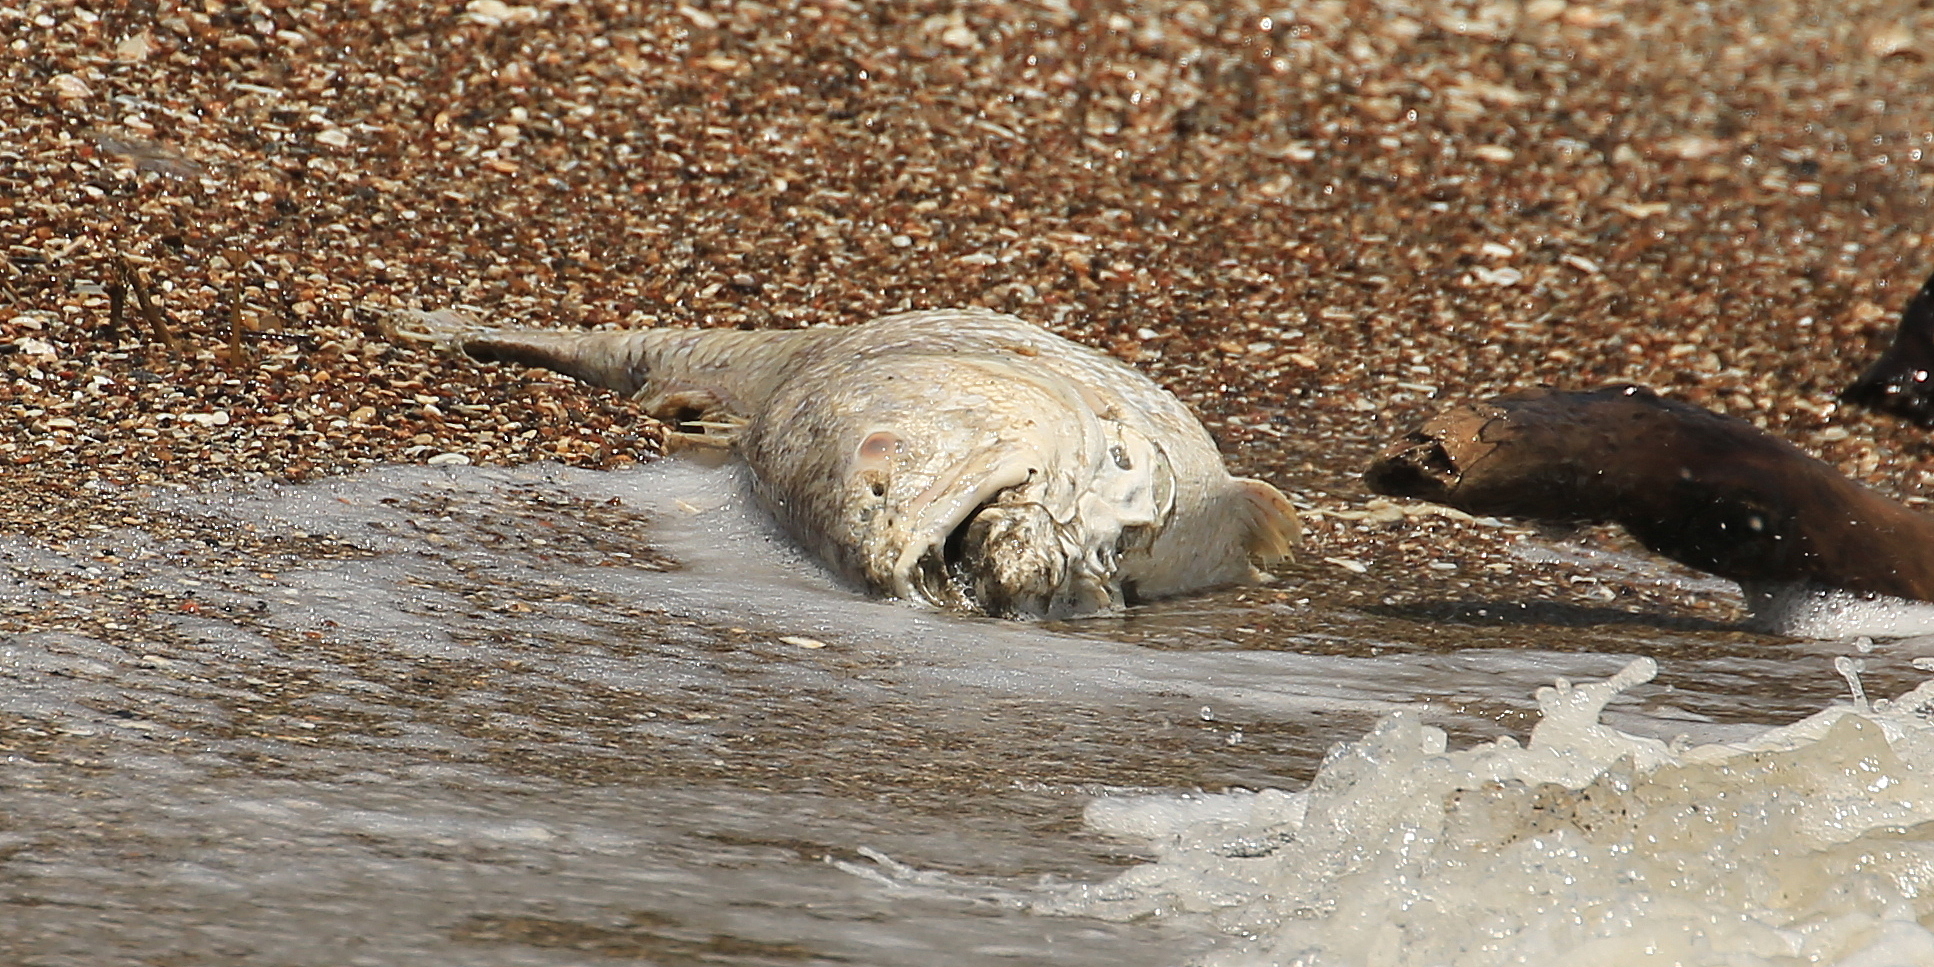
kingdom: Animalia
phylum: Chordata
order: Perciformes
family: Sciaenidae
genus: Sciaenops
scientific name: Sciaenops ocellatus
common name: Red drum
